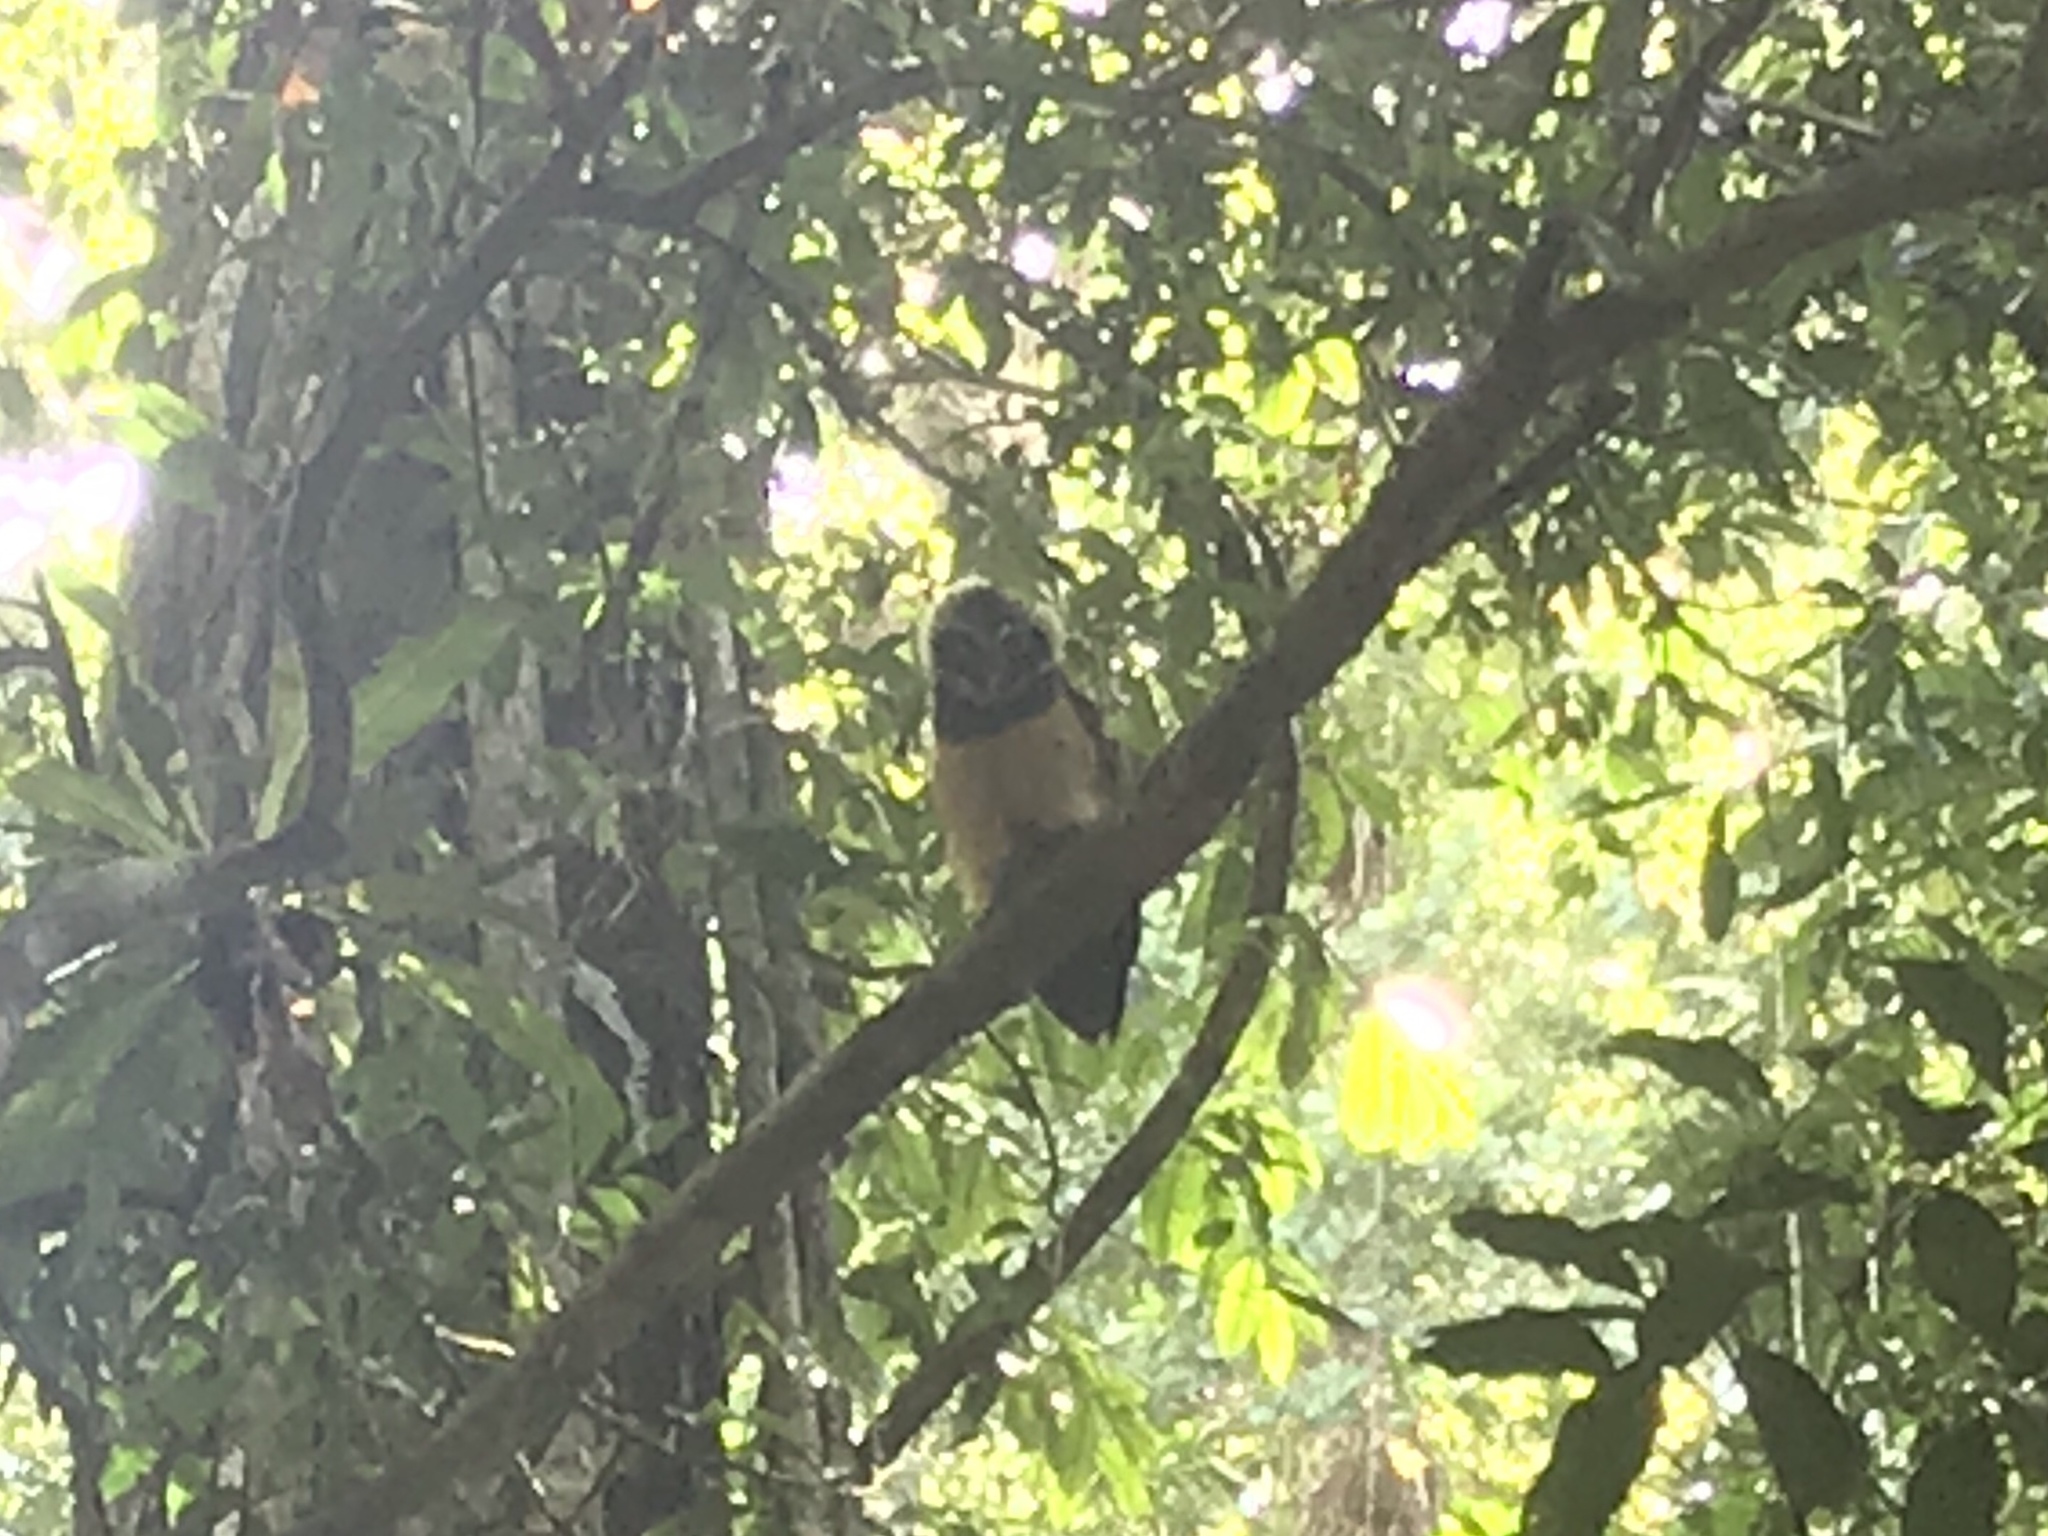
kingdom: Animalia
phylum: Chordata
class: Aves
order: Strigiformes
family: Strigidae
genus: Pulsatrix
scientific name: Pulsatrix perspicillata
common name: Spectacled owl
